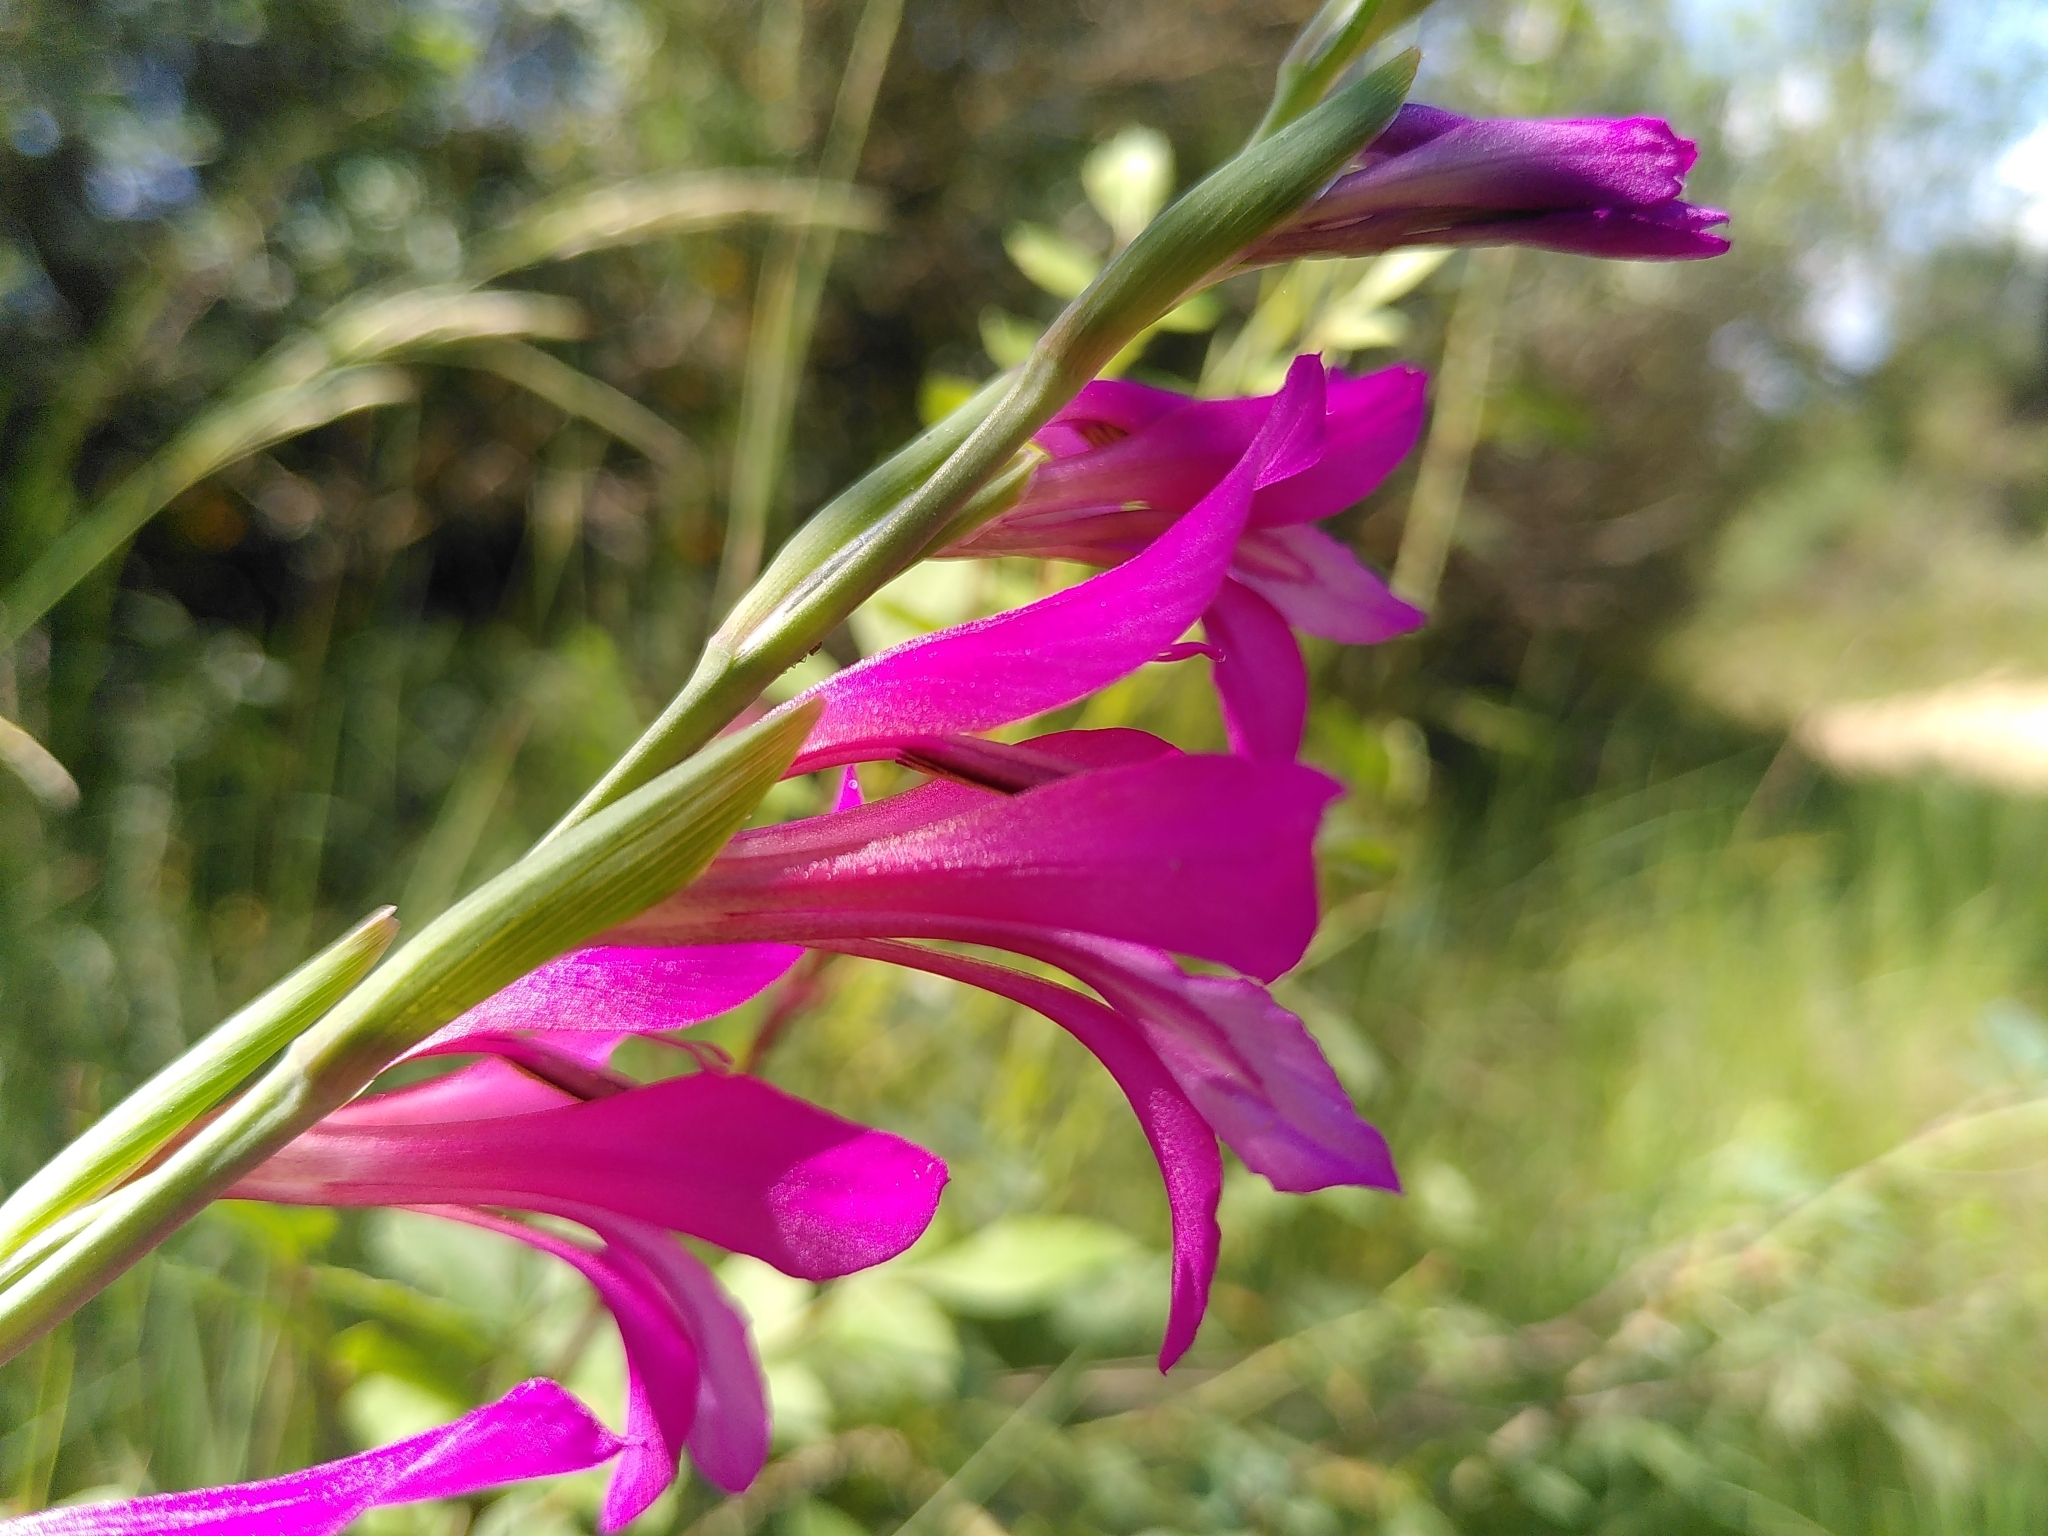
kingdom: Plantae
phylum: Tracheophyta
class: Liliopsida
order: Asparagales
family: Iridaceae
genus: Gladiolus
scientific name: Gladiolus dubius
